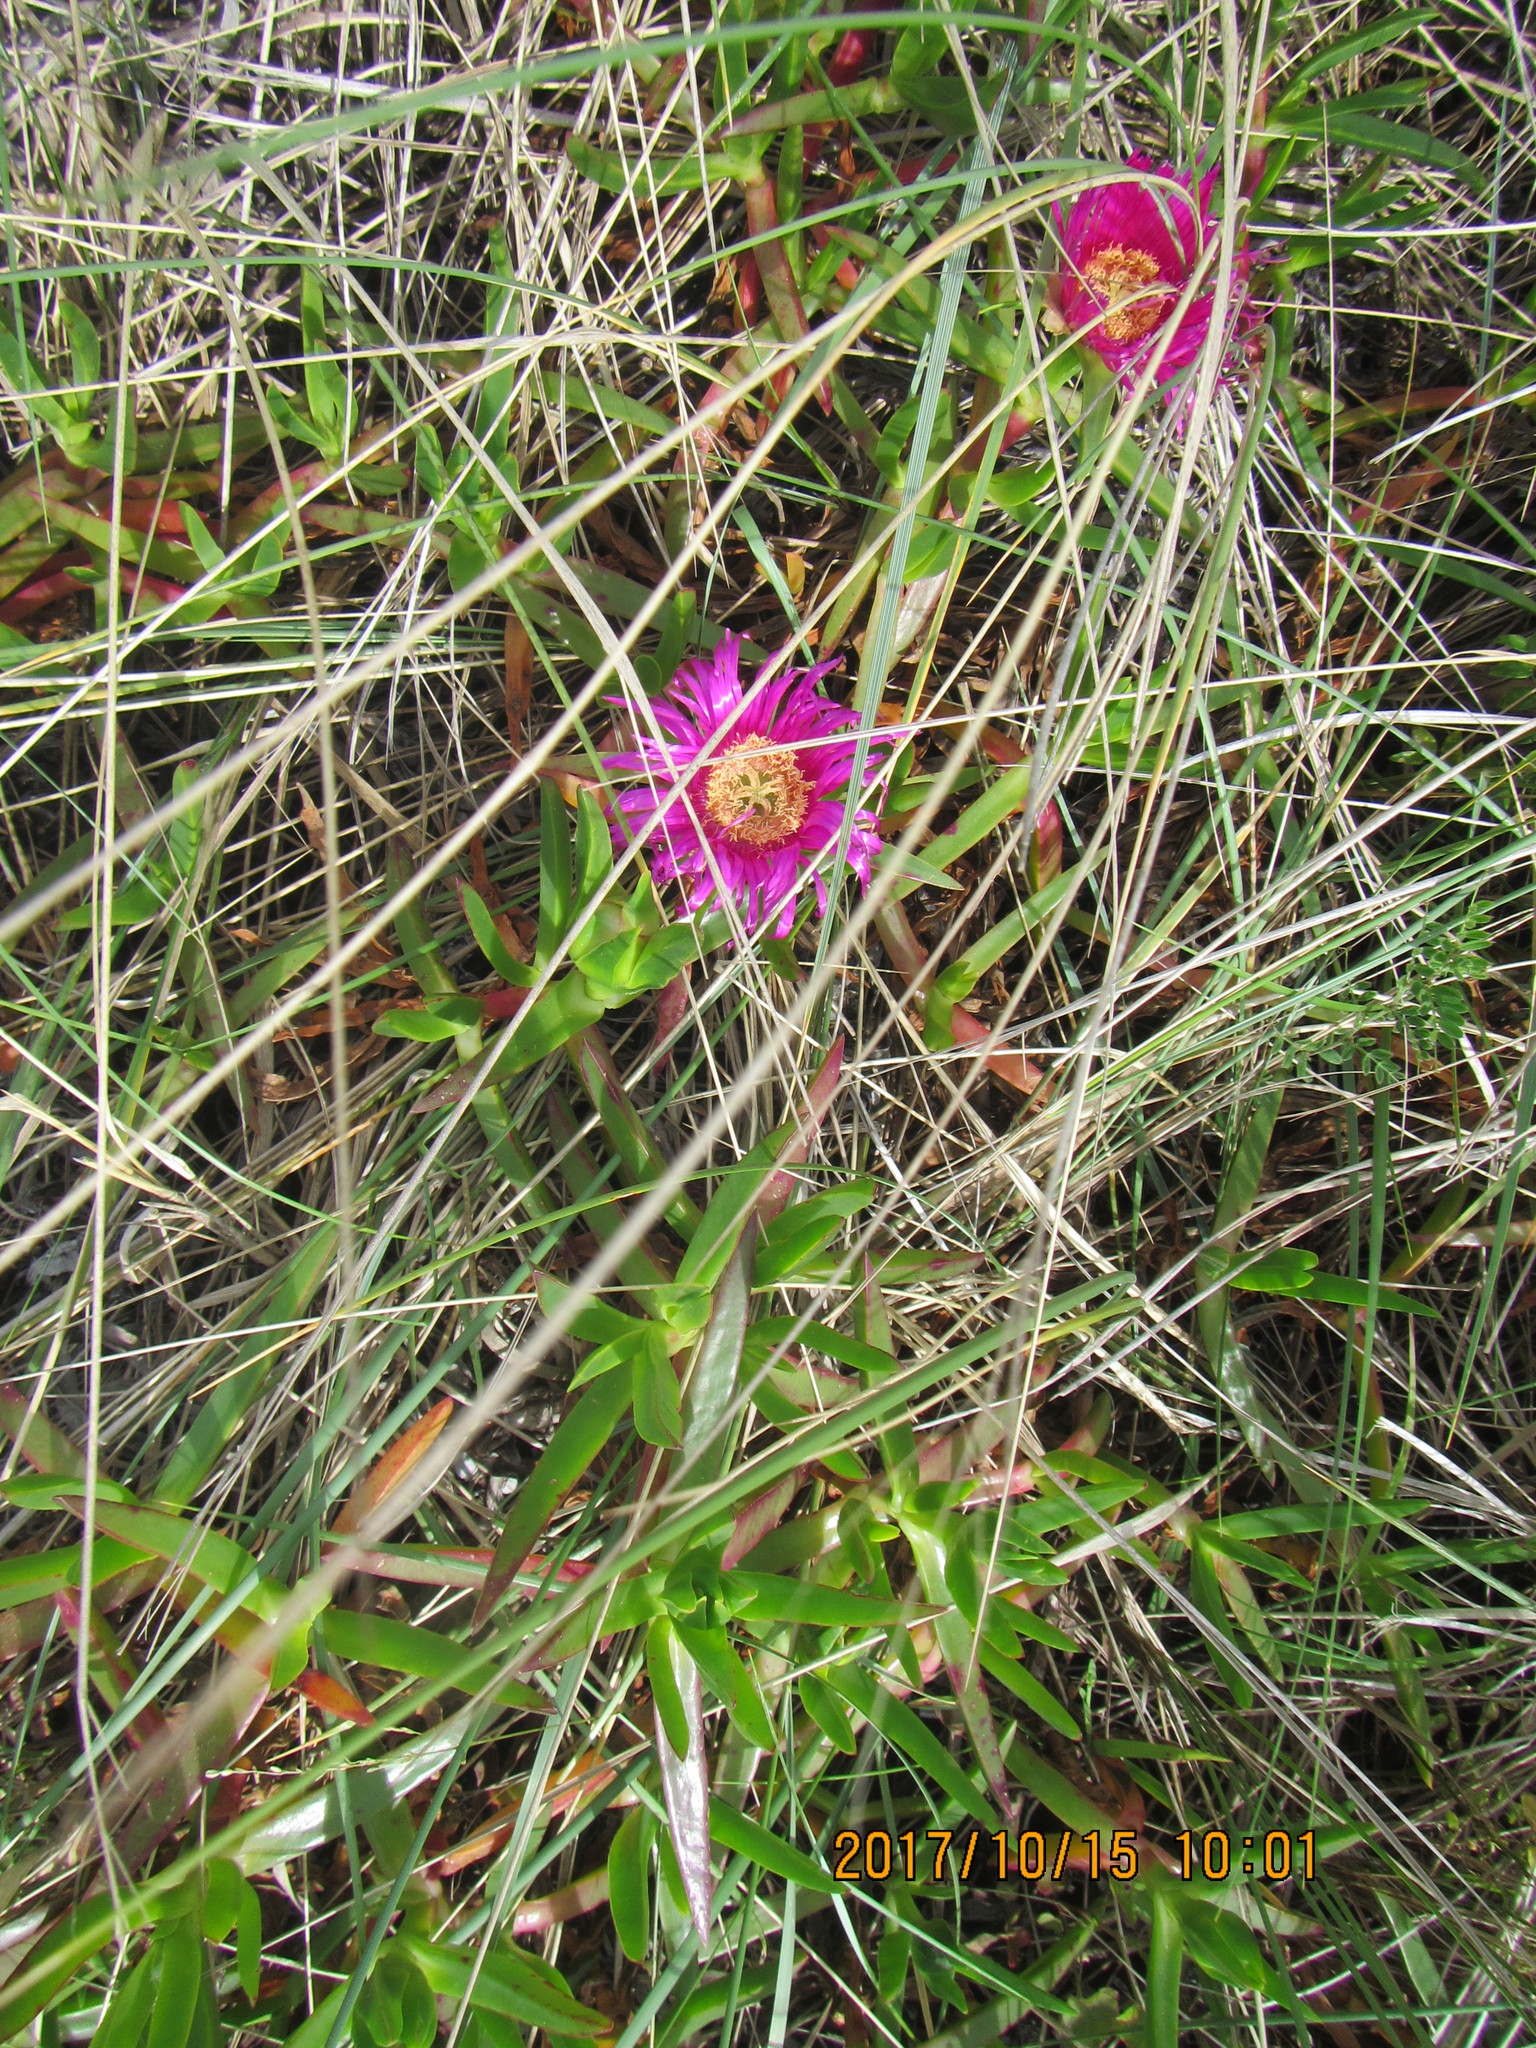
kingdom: Plantae
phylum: Tracheophyta
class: Magnoliopsida
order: Caryophyllales
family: Aizoaceae
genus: Carpobrotus
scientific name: Carpobrotus chilensis
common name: Sea fig
